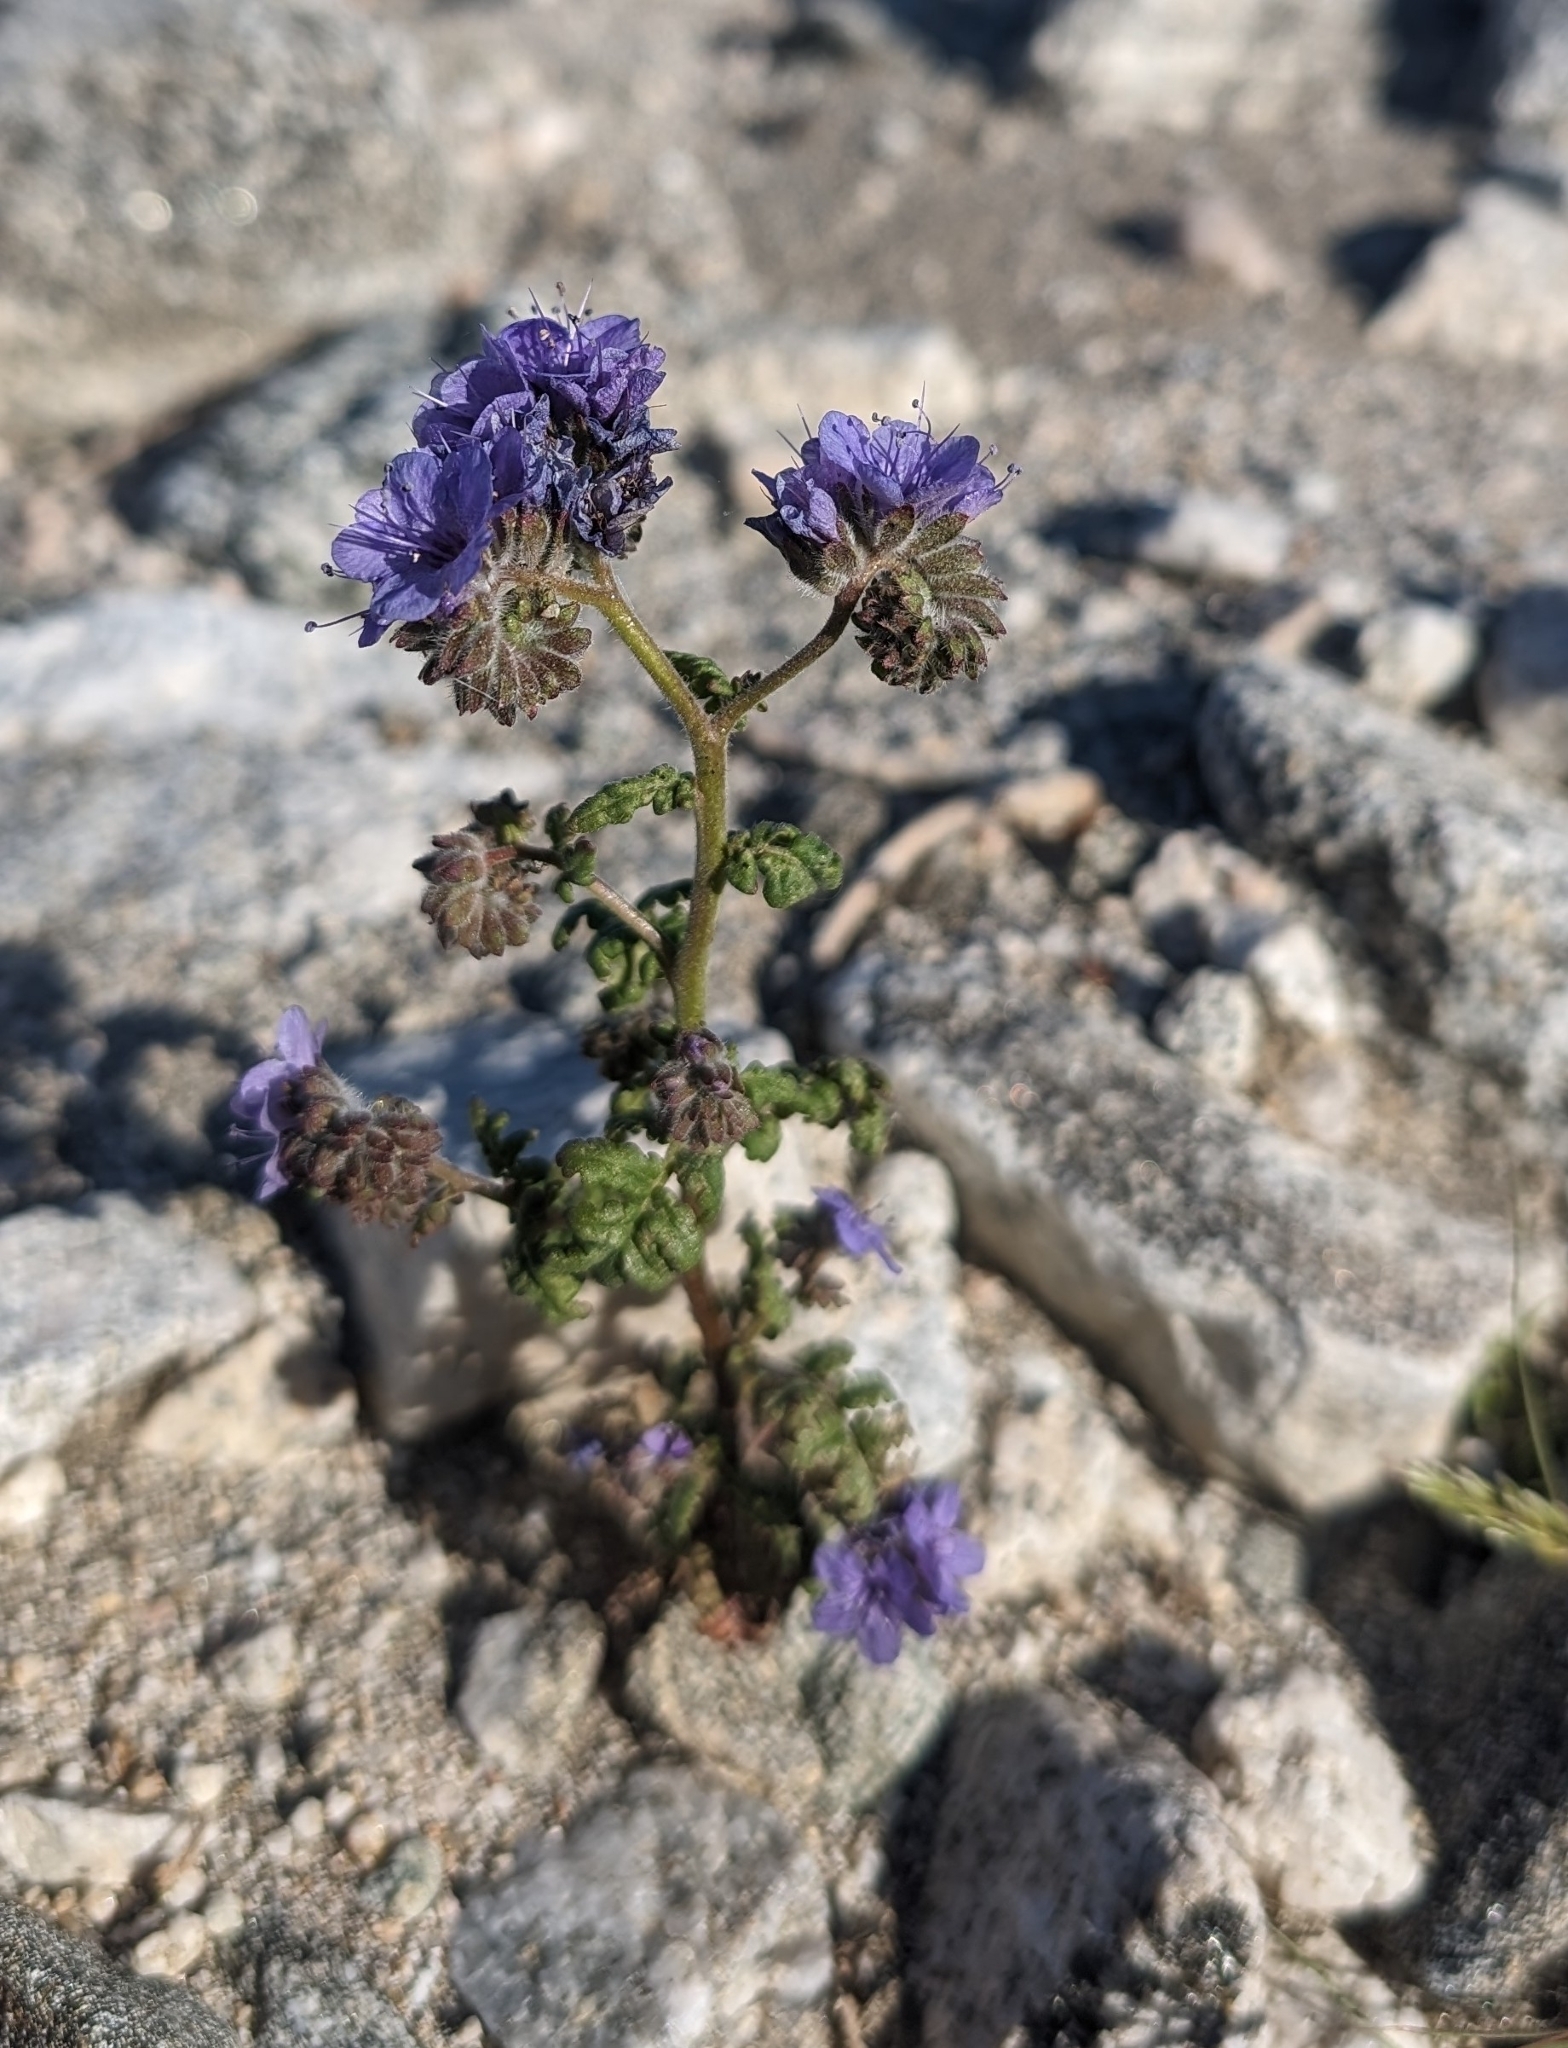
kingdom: Plantae
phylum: Tracheophyta
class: Magnoliopsida
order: Boraginales
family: Hydrophyllaceae
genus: Phacelia
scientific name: Phacelia distans
